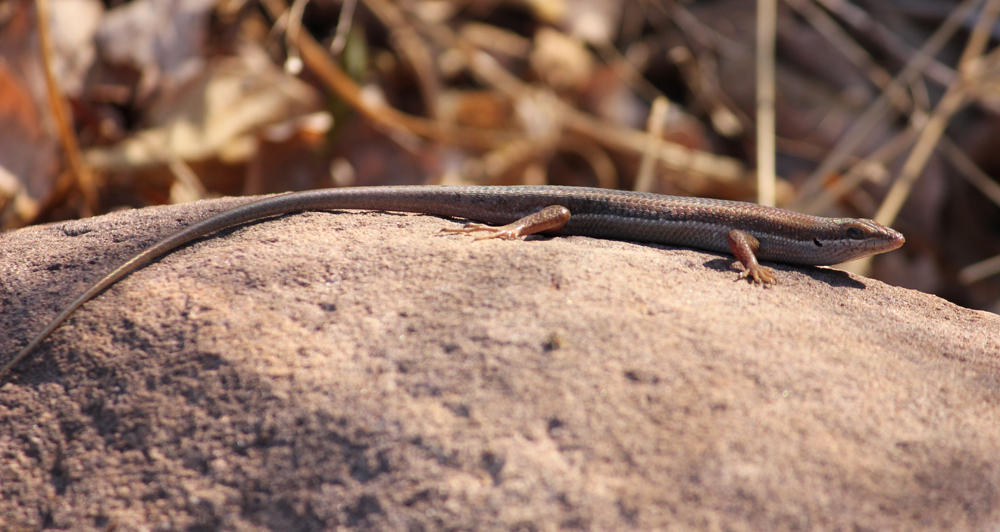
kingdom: Animalia
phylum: Chordata
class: Squamata
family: Scincidae
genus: Trachylepis
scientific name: Trachylepis varia
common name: Eastern variable skink
